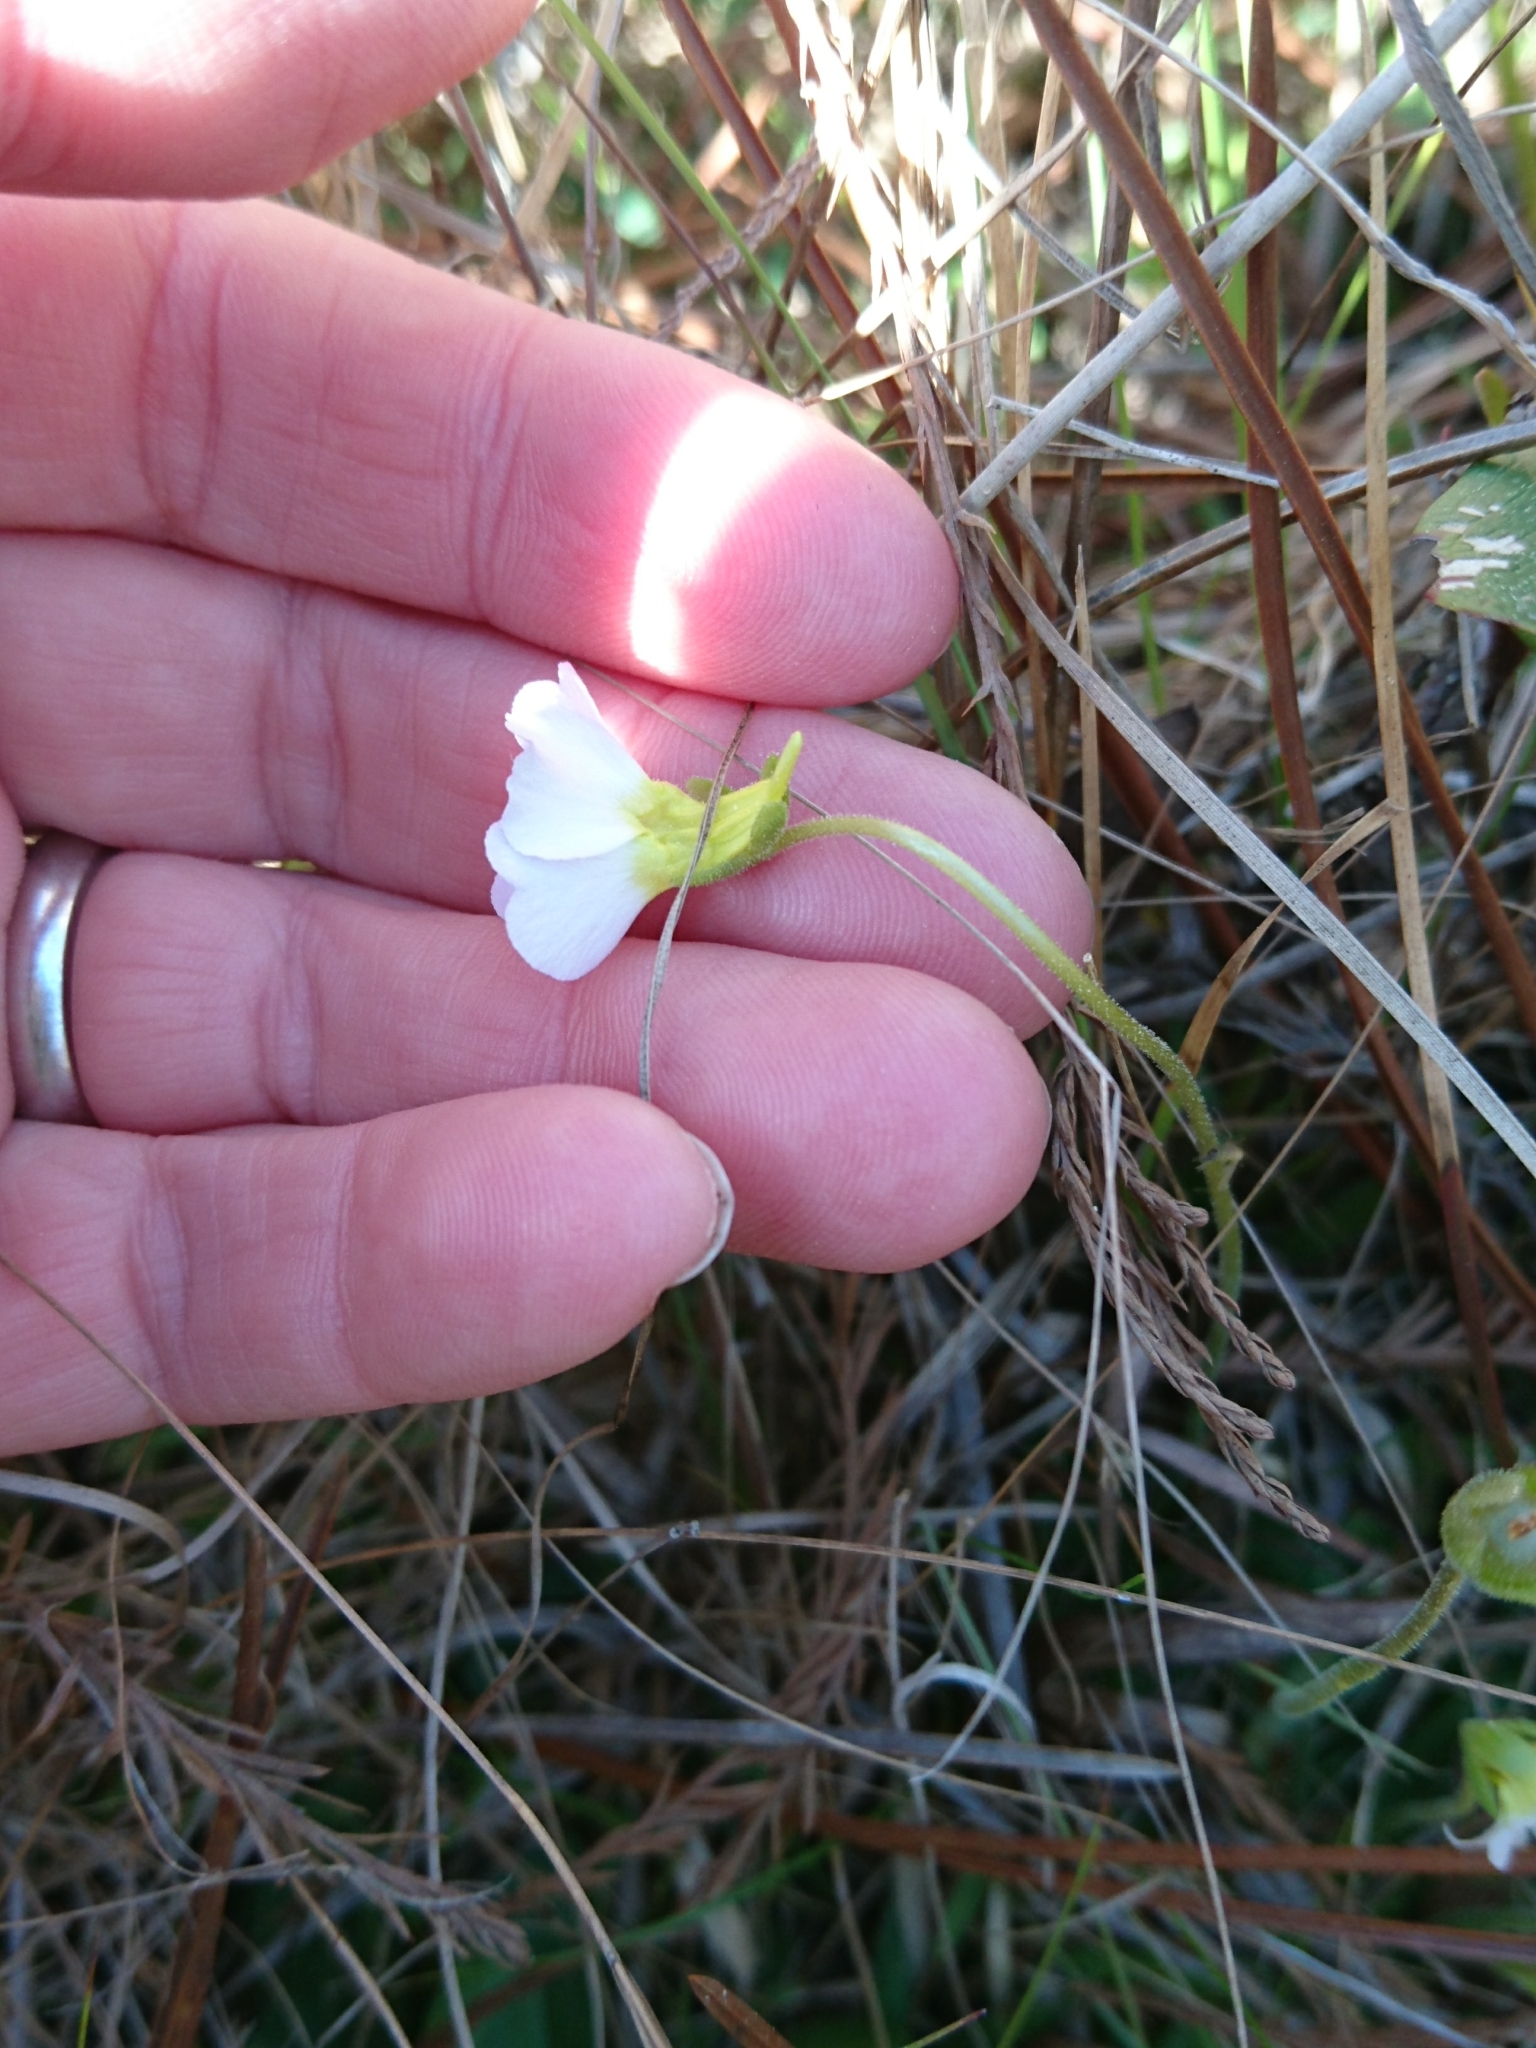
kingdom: Plantae
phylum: Tracheophyta
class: Magnoliopsida
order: Lamiales
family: Lentibulariaceae
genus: Pinguicula
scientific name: Pinguicula primuliflora
